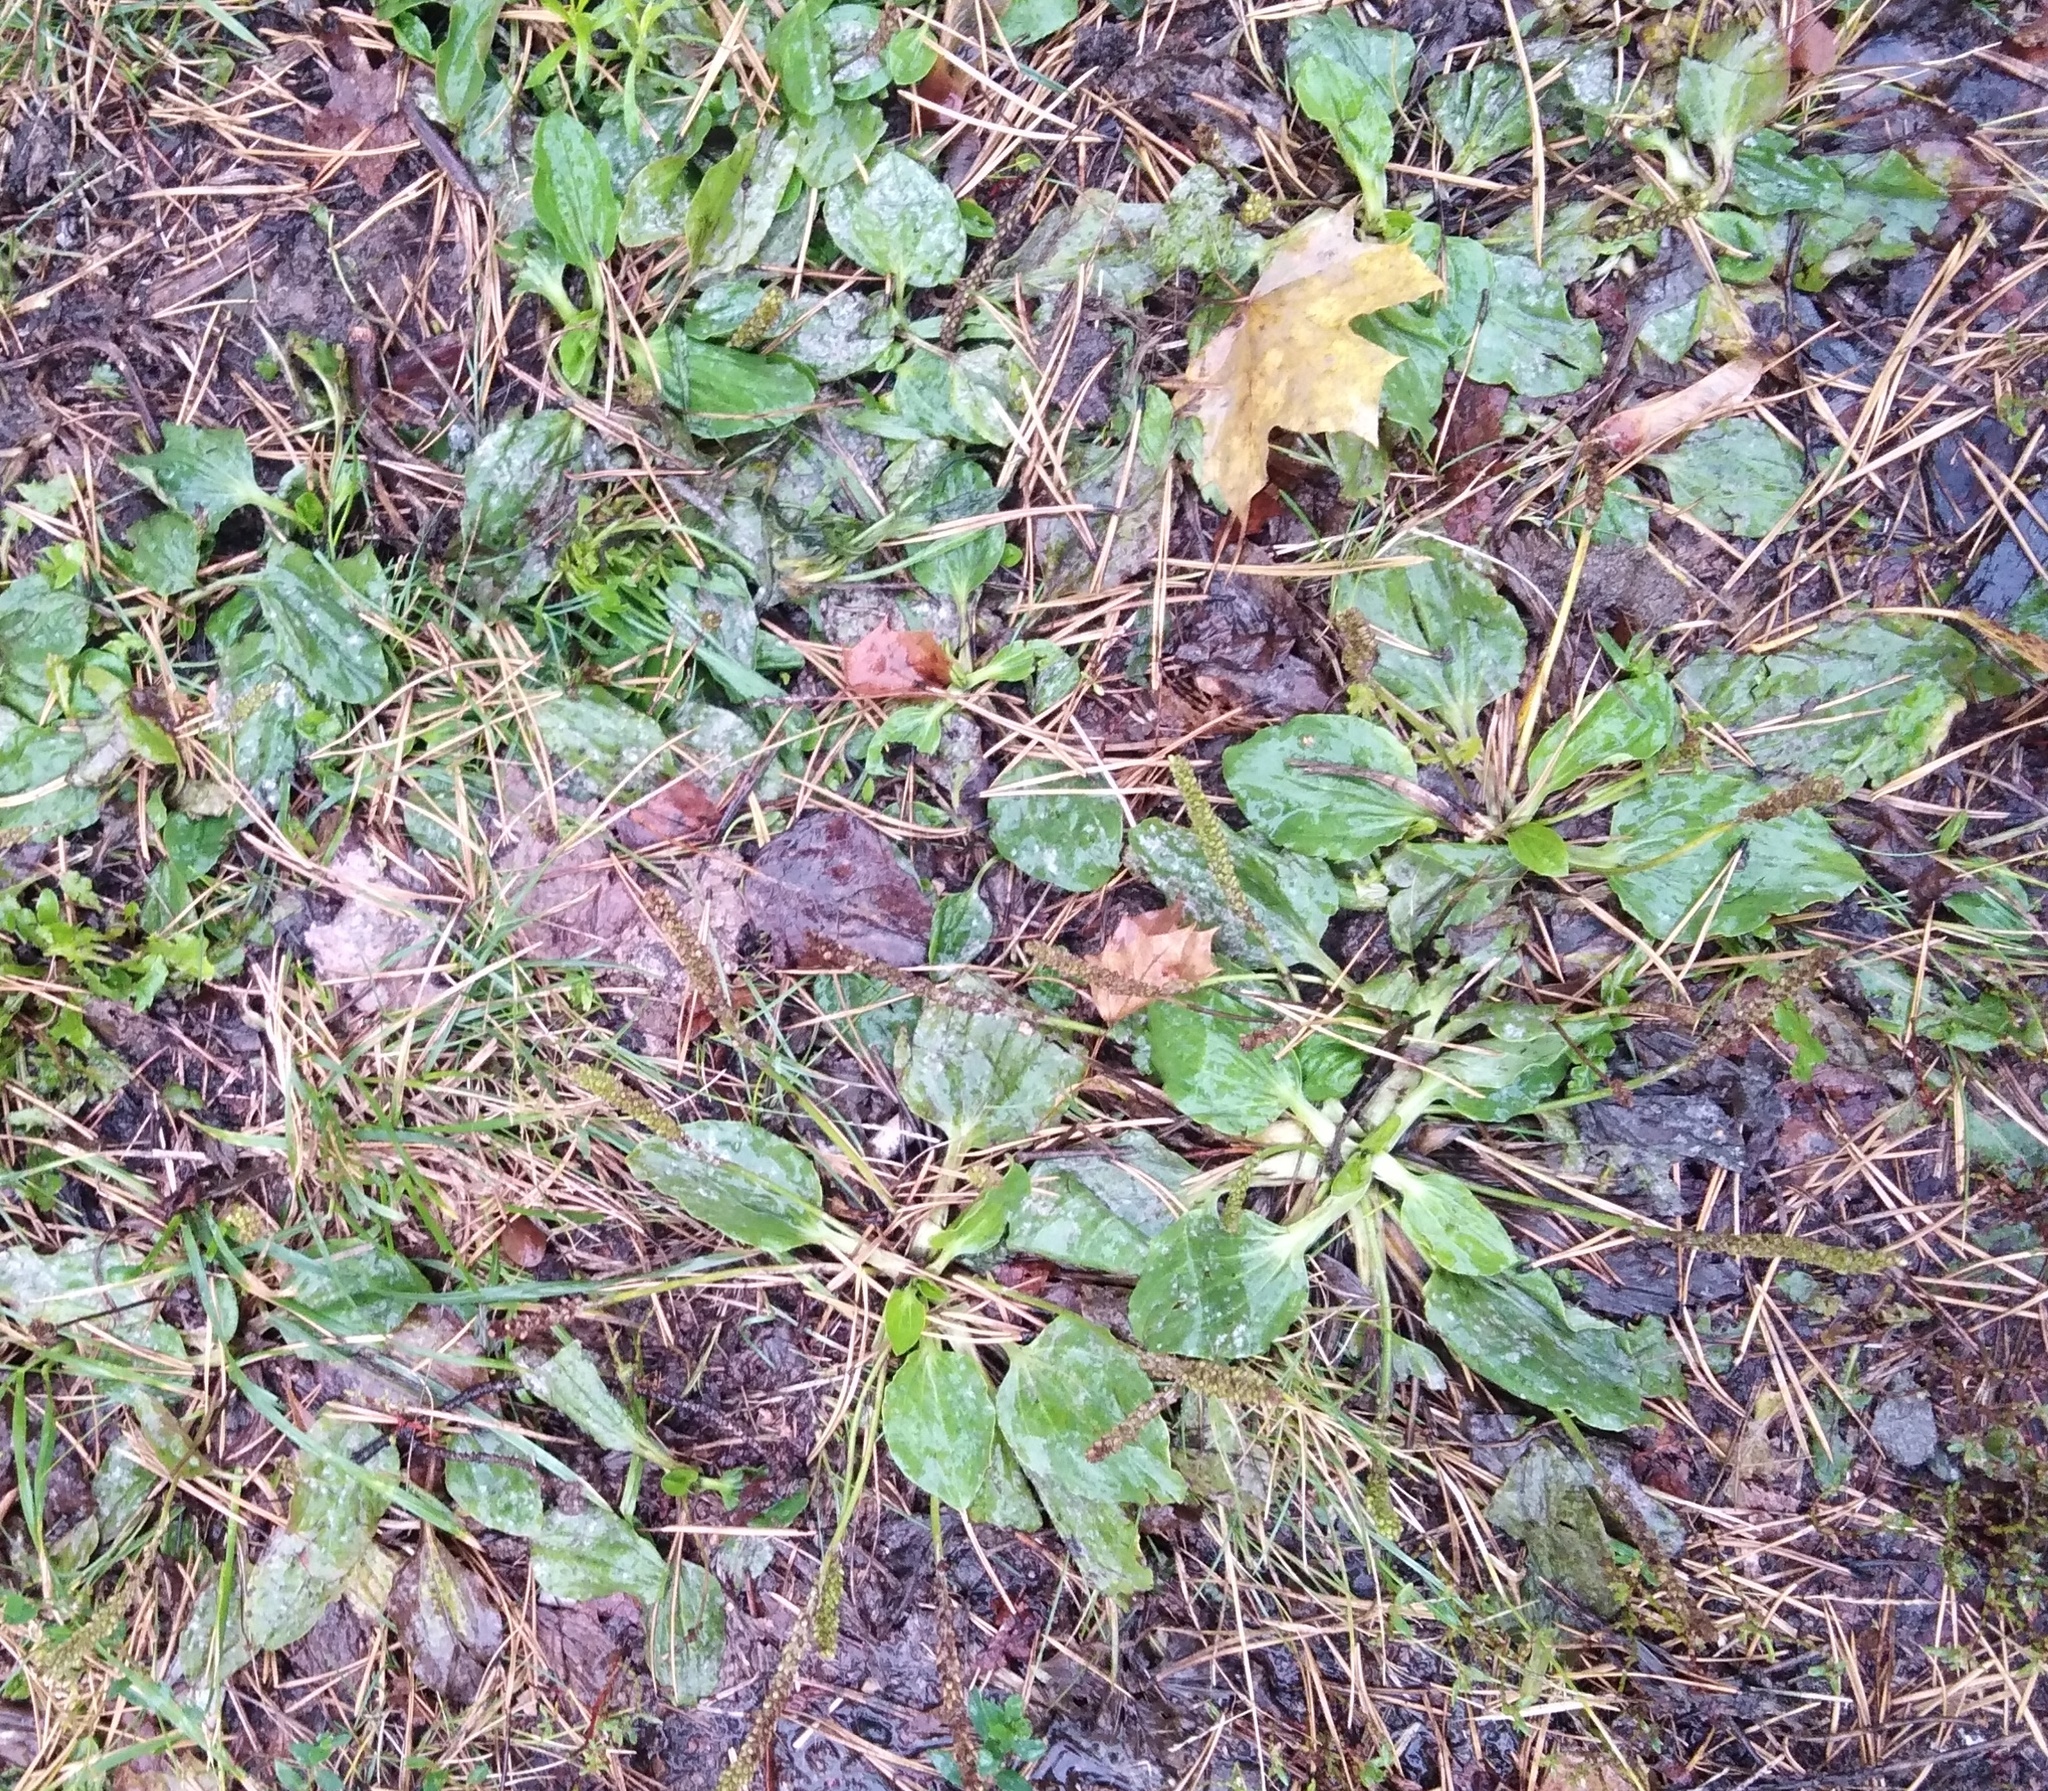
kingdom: Plantae
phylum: Tracheophyta
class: Magnoliopsida
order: Lamiales
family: Plantaginaceae
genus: Plantago
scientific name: Plantago major
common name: Common plantain
